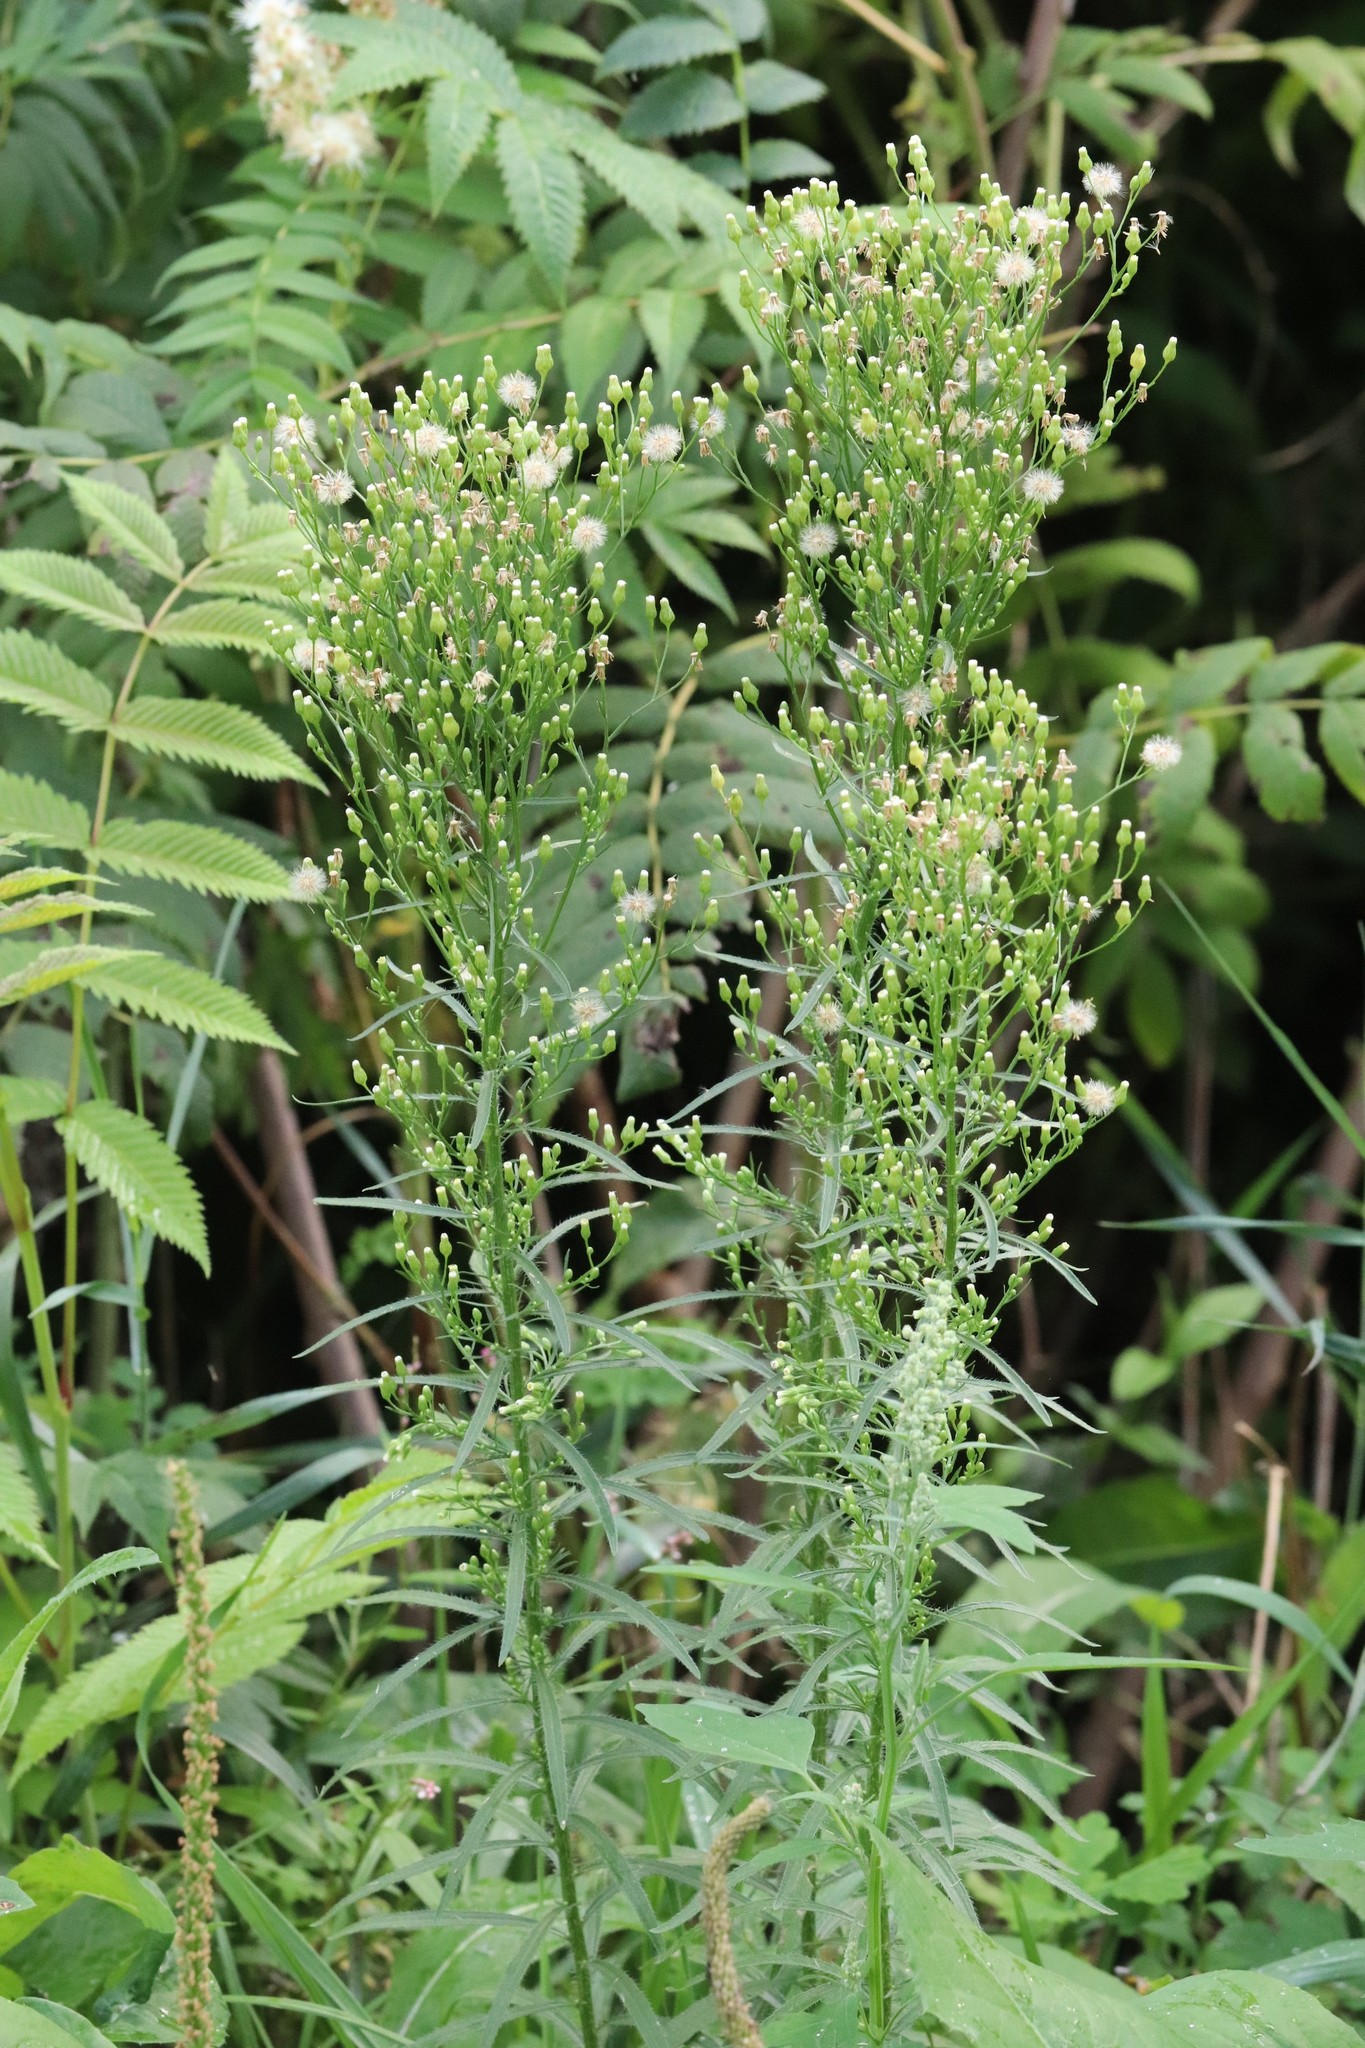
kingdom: Plantae
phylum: Tracheophyta
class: Magnoliopsida
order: Asterales
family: Asteraceae
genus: Erigeron
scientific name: Erigeron canadensis
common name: Canadian fleabane
